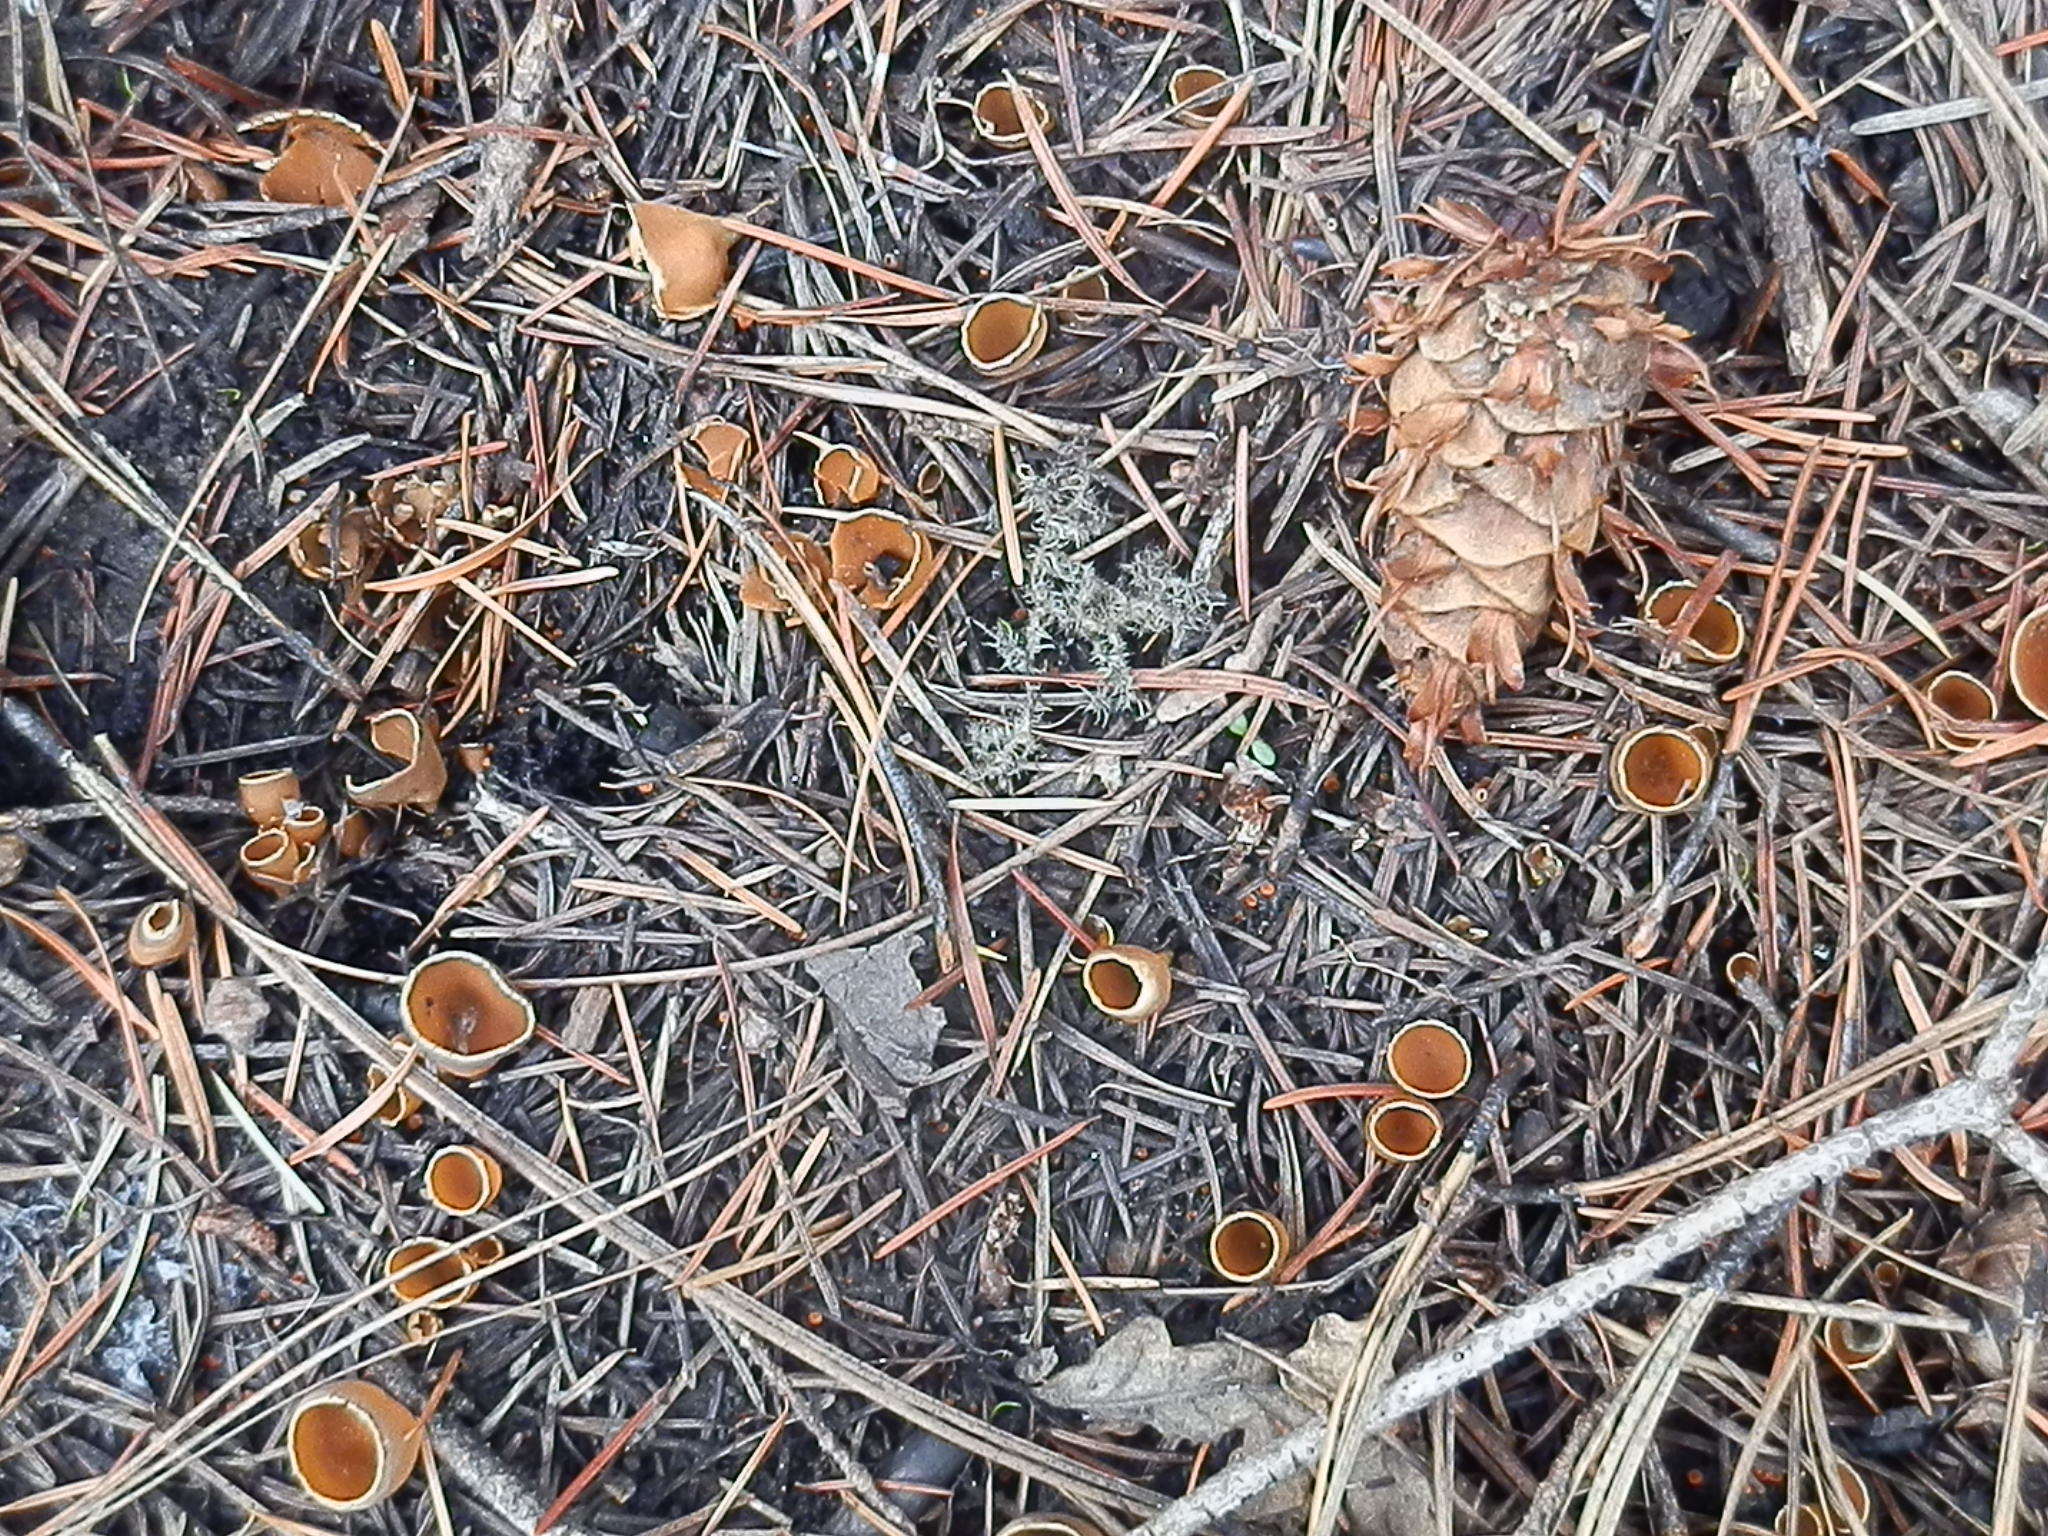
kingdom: Fungi
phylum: Ascomycota
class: Pezizomycetes
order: Pezizales
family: Pyronemataceae
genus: Geopyxis
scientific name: Geopyxis carbonaria
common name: Stalked bonfire cup
